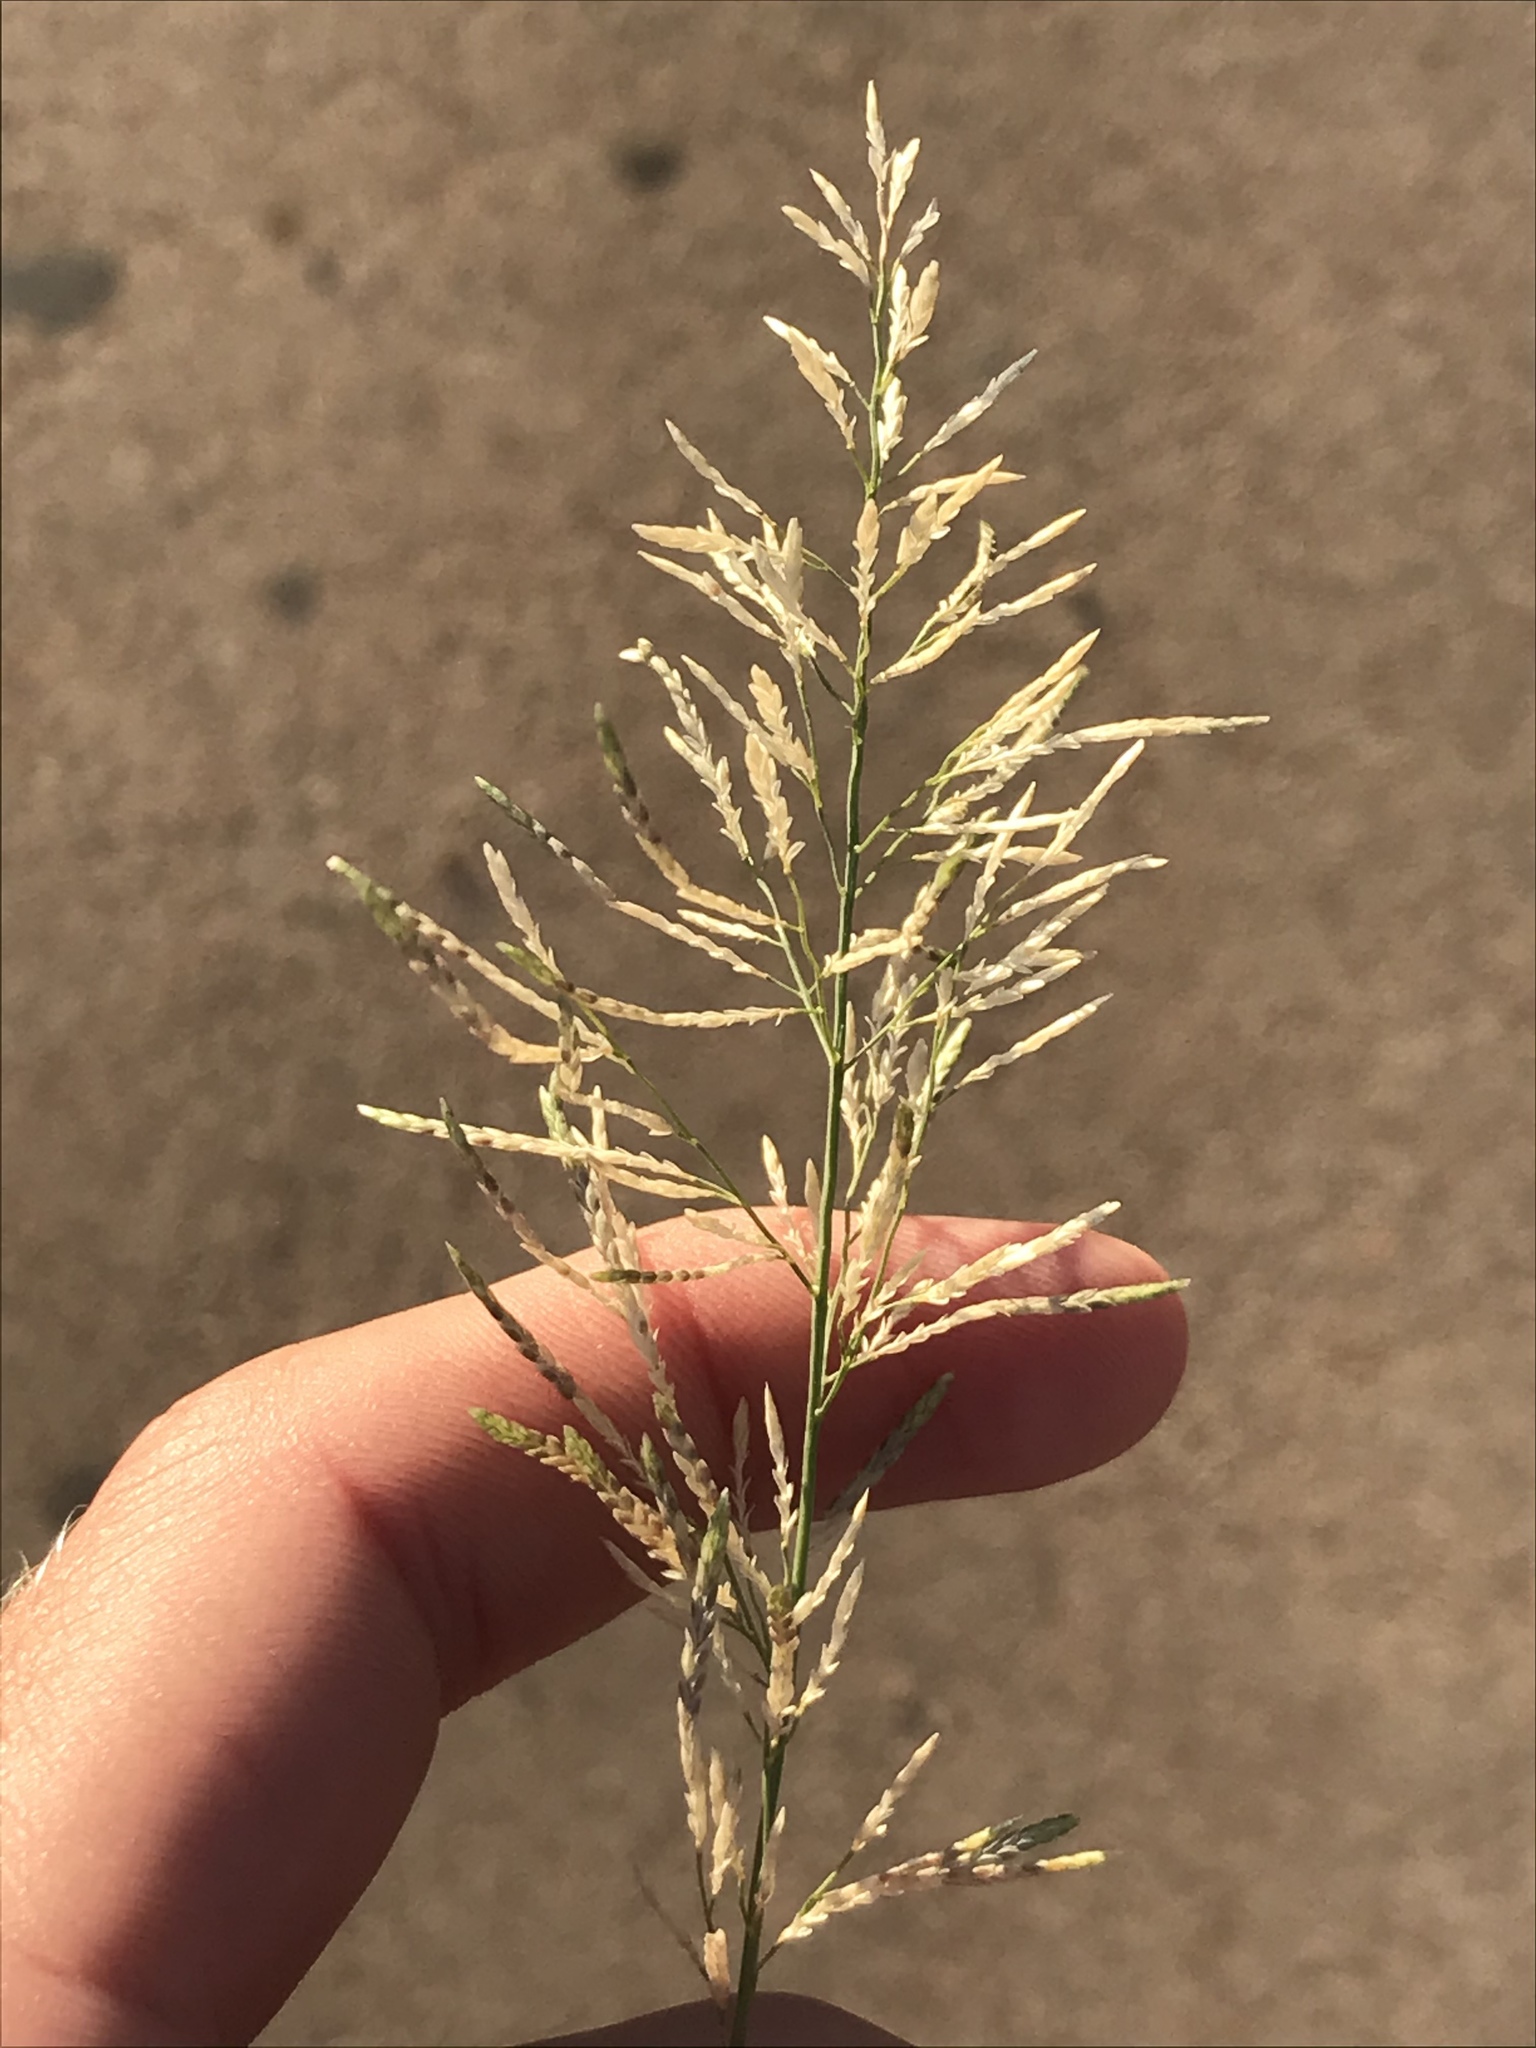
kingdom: Plantae
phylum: Tracheophyta
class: Liliopsida
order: Poales
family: Poaceae
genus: Eragrostis
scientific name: Eragrostis barrelieri
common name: Mediterranean lovegrass
